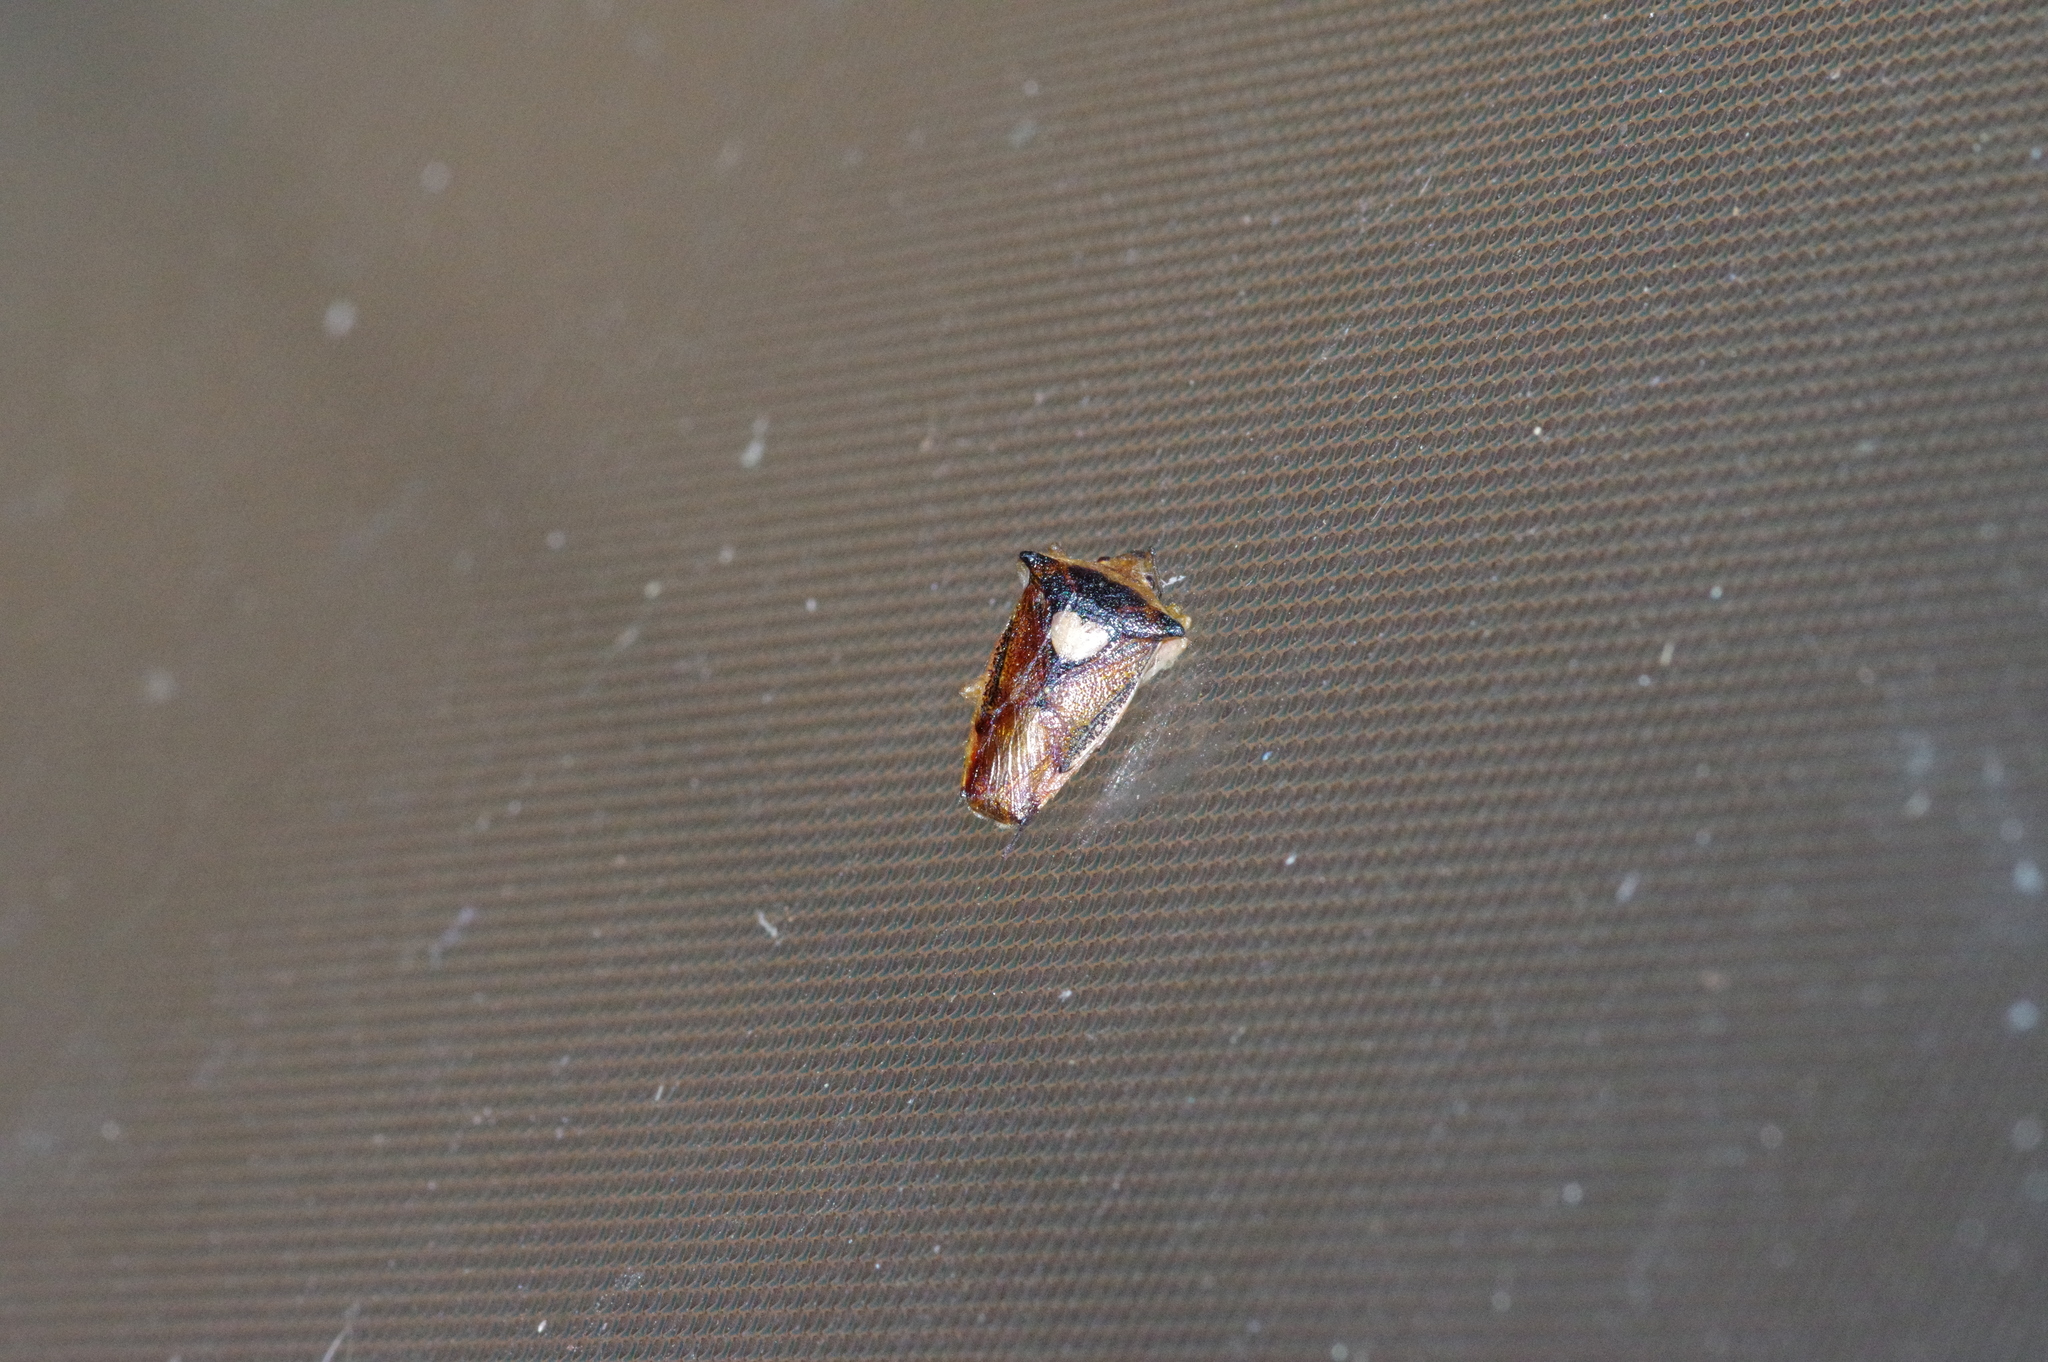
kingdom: Animalia
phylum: Arthropoda
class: Insecta
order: Hemiptera
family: Acanthosomatidae
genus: Sastragala
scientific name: Sastragala esakii
